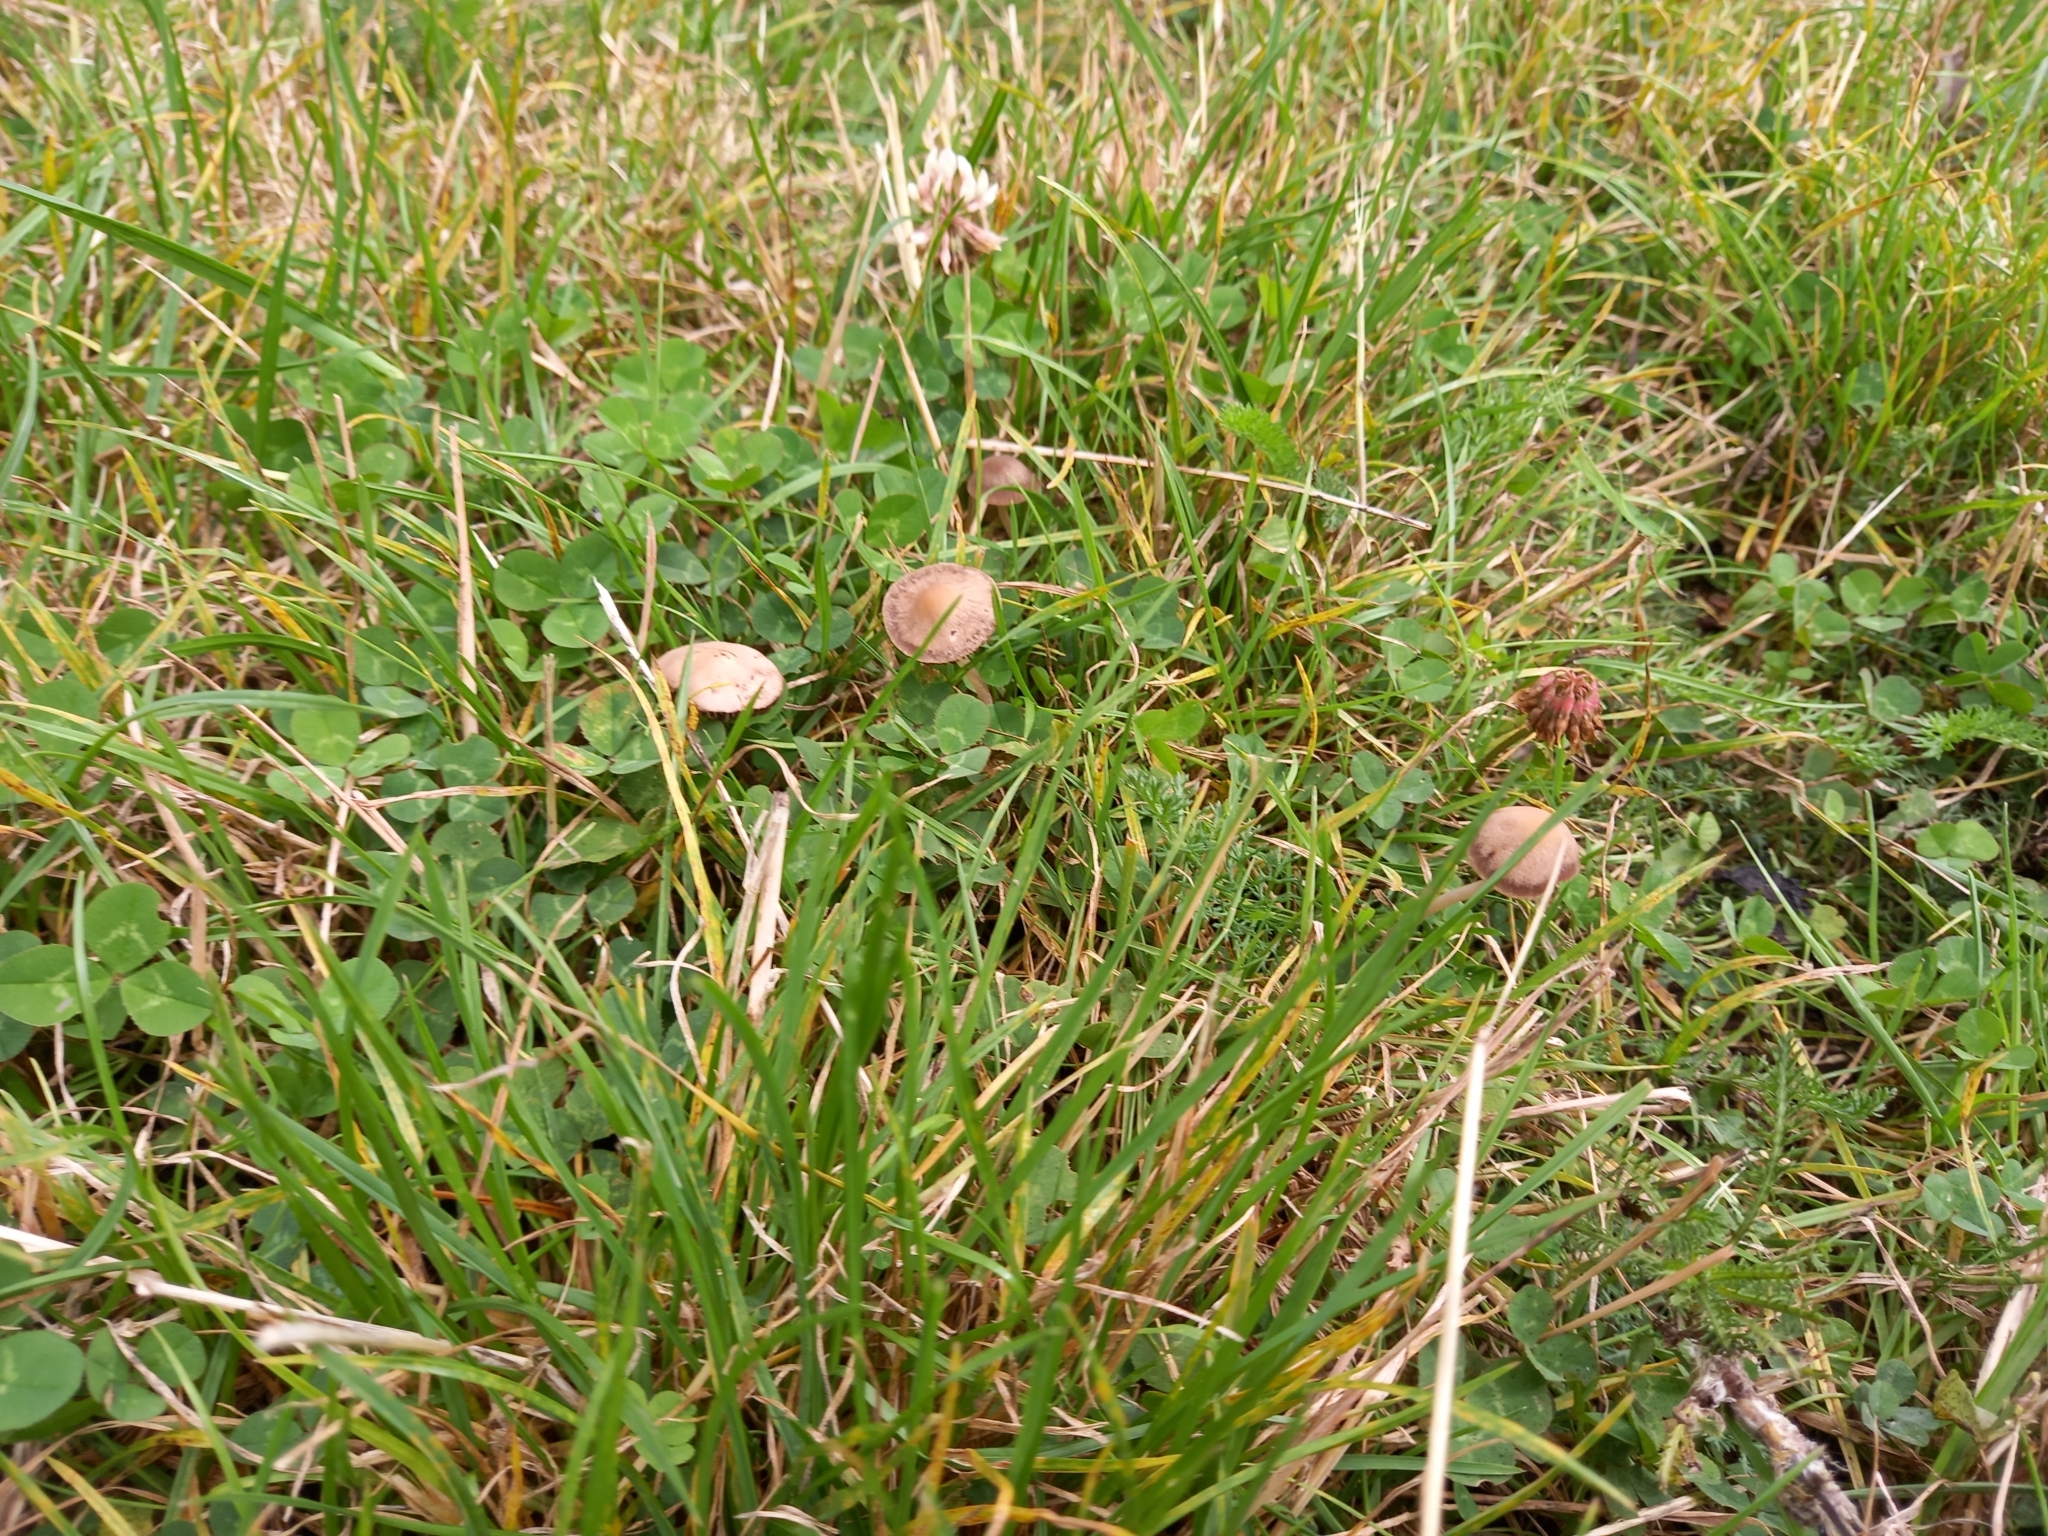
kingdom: Fungi
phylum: Basidiomycota
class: Agaricomycetes
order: Agaricales
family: Bolbitiaceae
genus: Panaeolina
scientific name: Panaeolina foenisecii
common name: Brown hay cap
